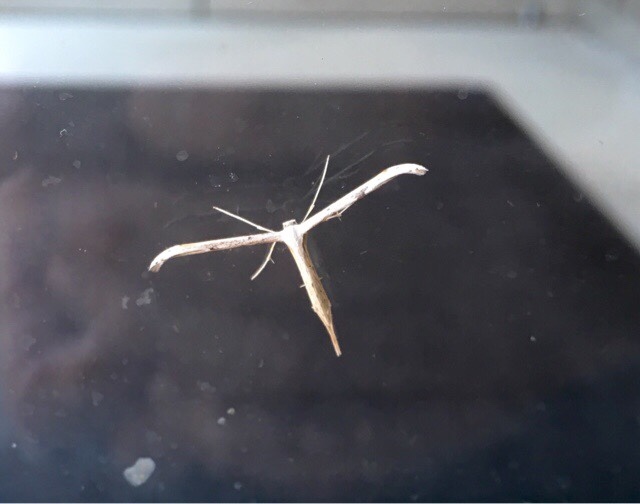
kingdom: Animalia
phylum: Arthropoda
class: Insecta
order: Lepidoptera
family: Pterophoridae
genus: Emmelina
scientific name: Emmelina monodactyla
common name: Common plume
